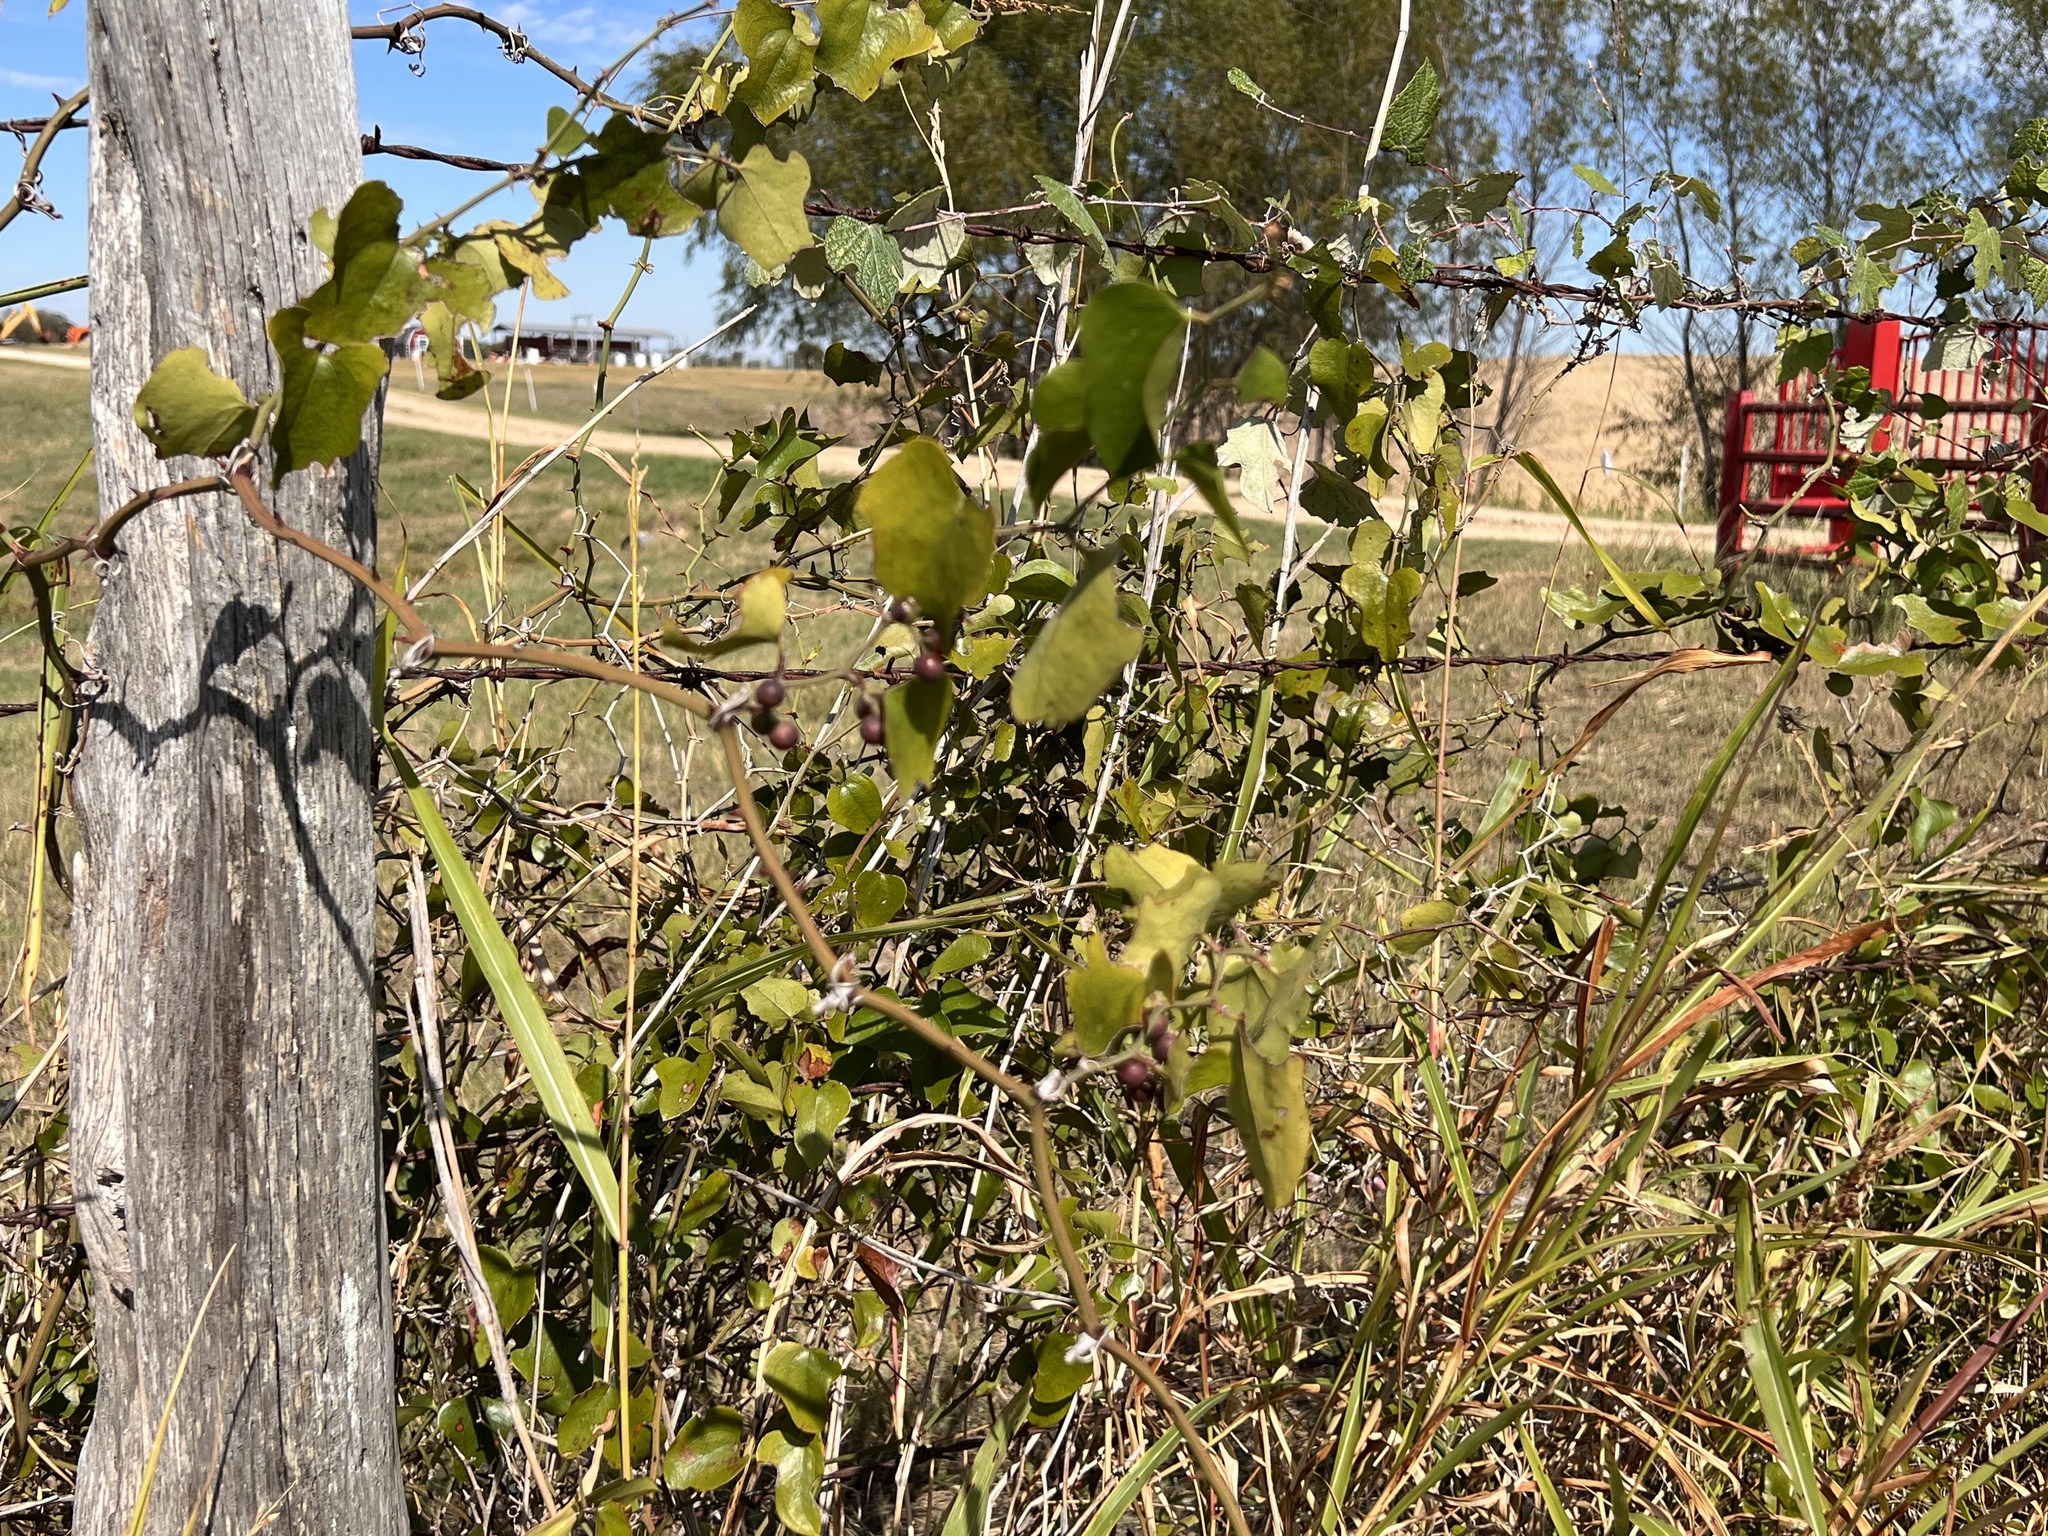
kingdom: Plantae
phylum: Tracheophyta
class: Liliopsida
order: Liliales
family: Smilacaceae
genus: Smilax
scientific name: Smilax bona-nox
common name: Catbrier
